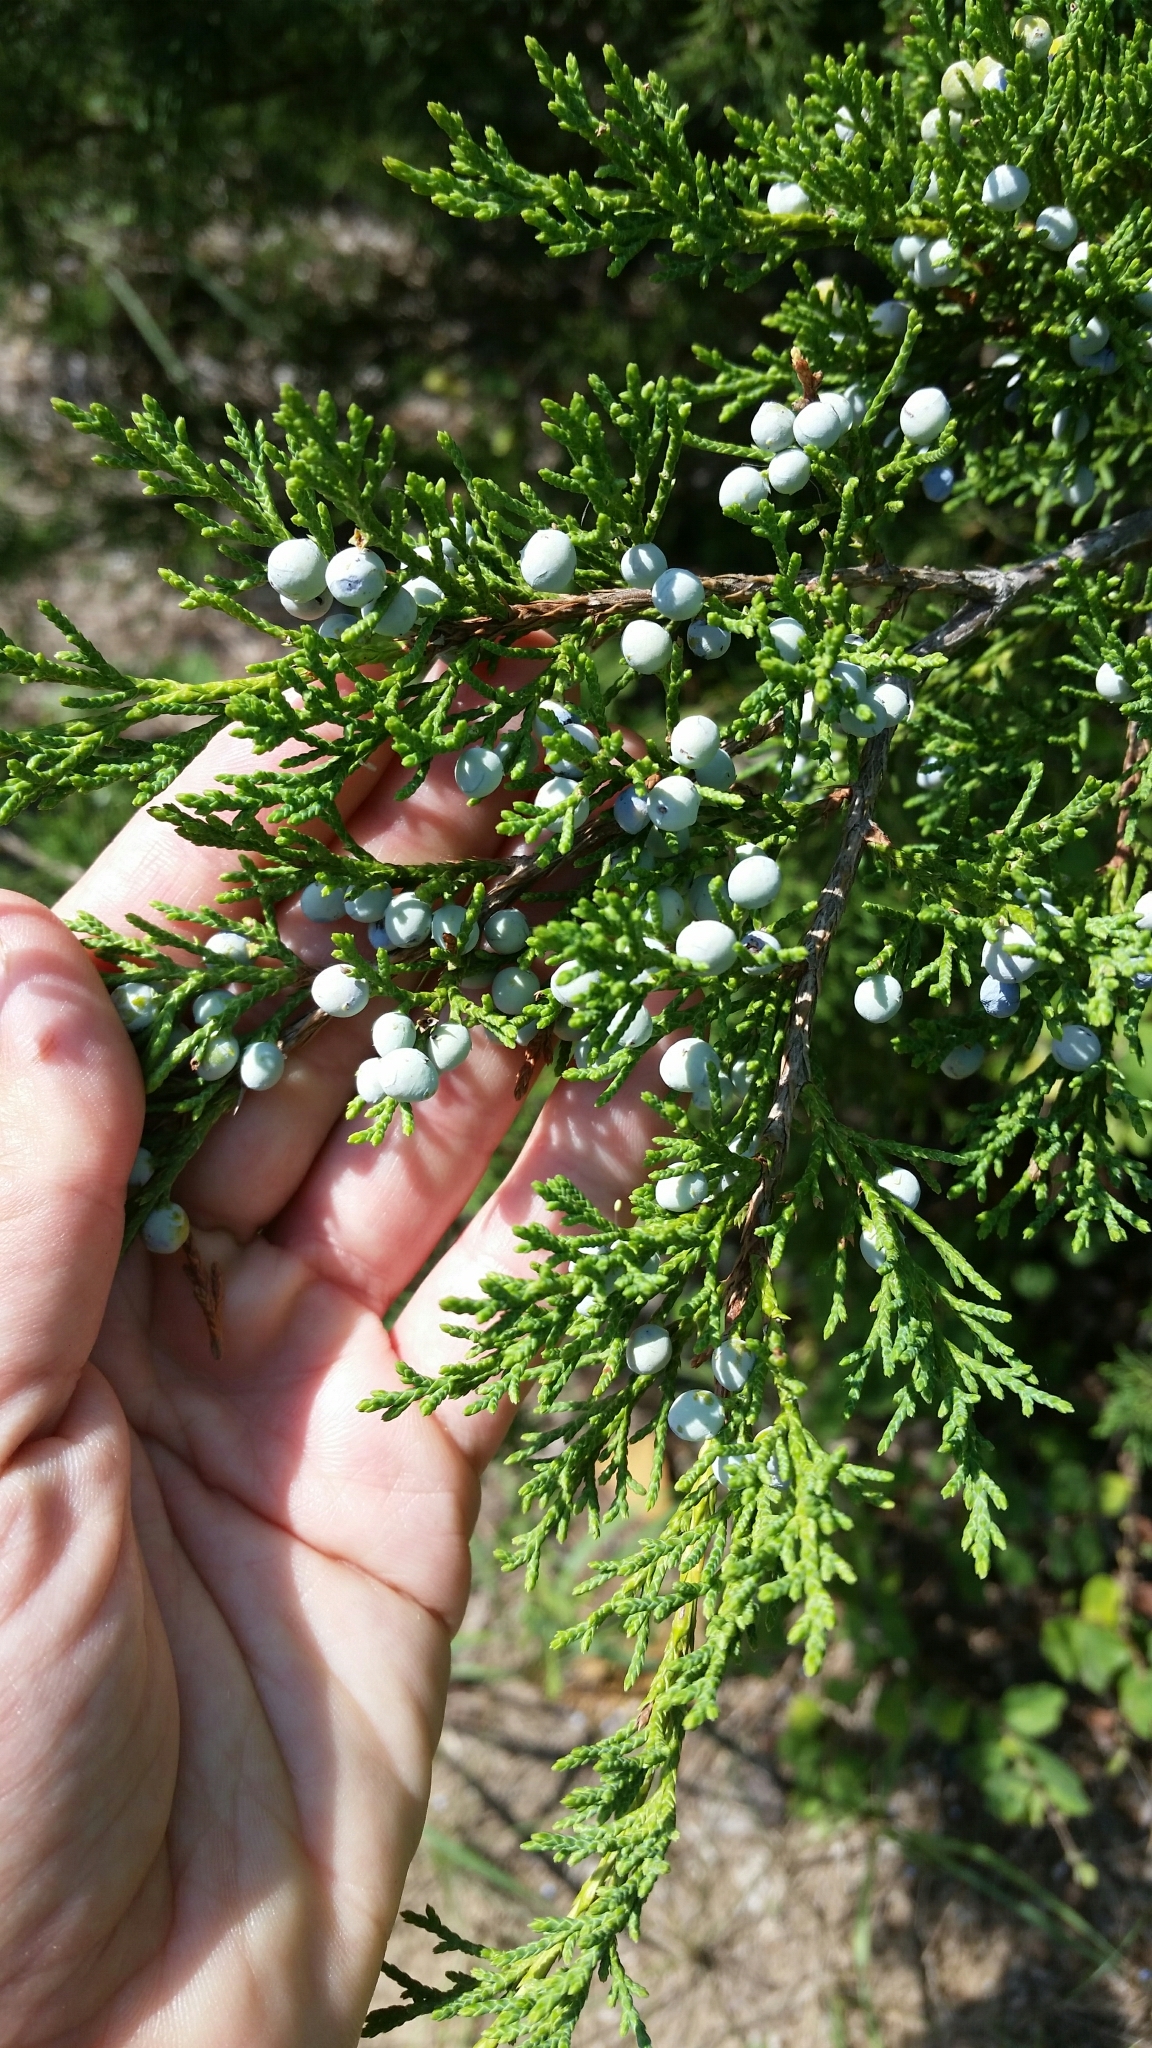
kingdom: Plantae
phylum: Tracheophyta
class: Pinopsida
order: Pinales
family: Cupressaceae
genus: Juniperus
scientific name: Juniperus virginiana
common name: Red juniper
